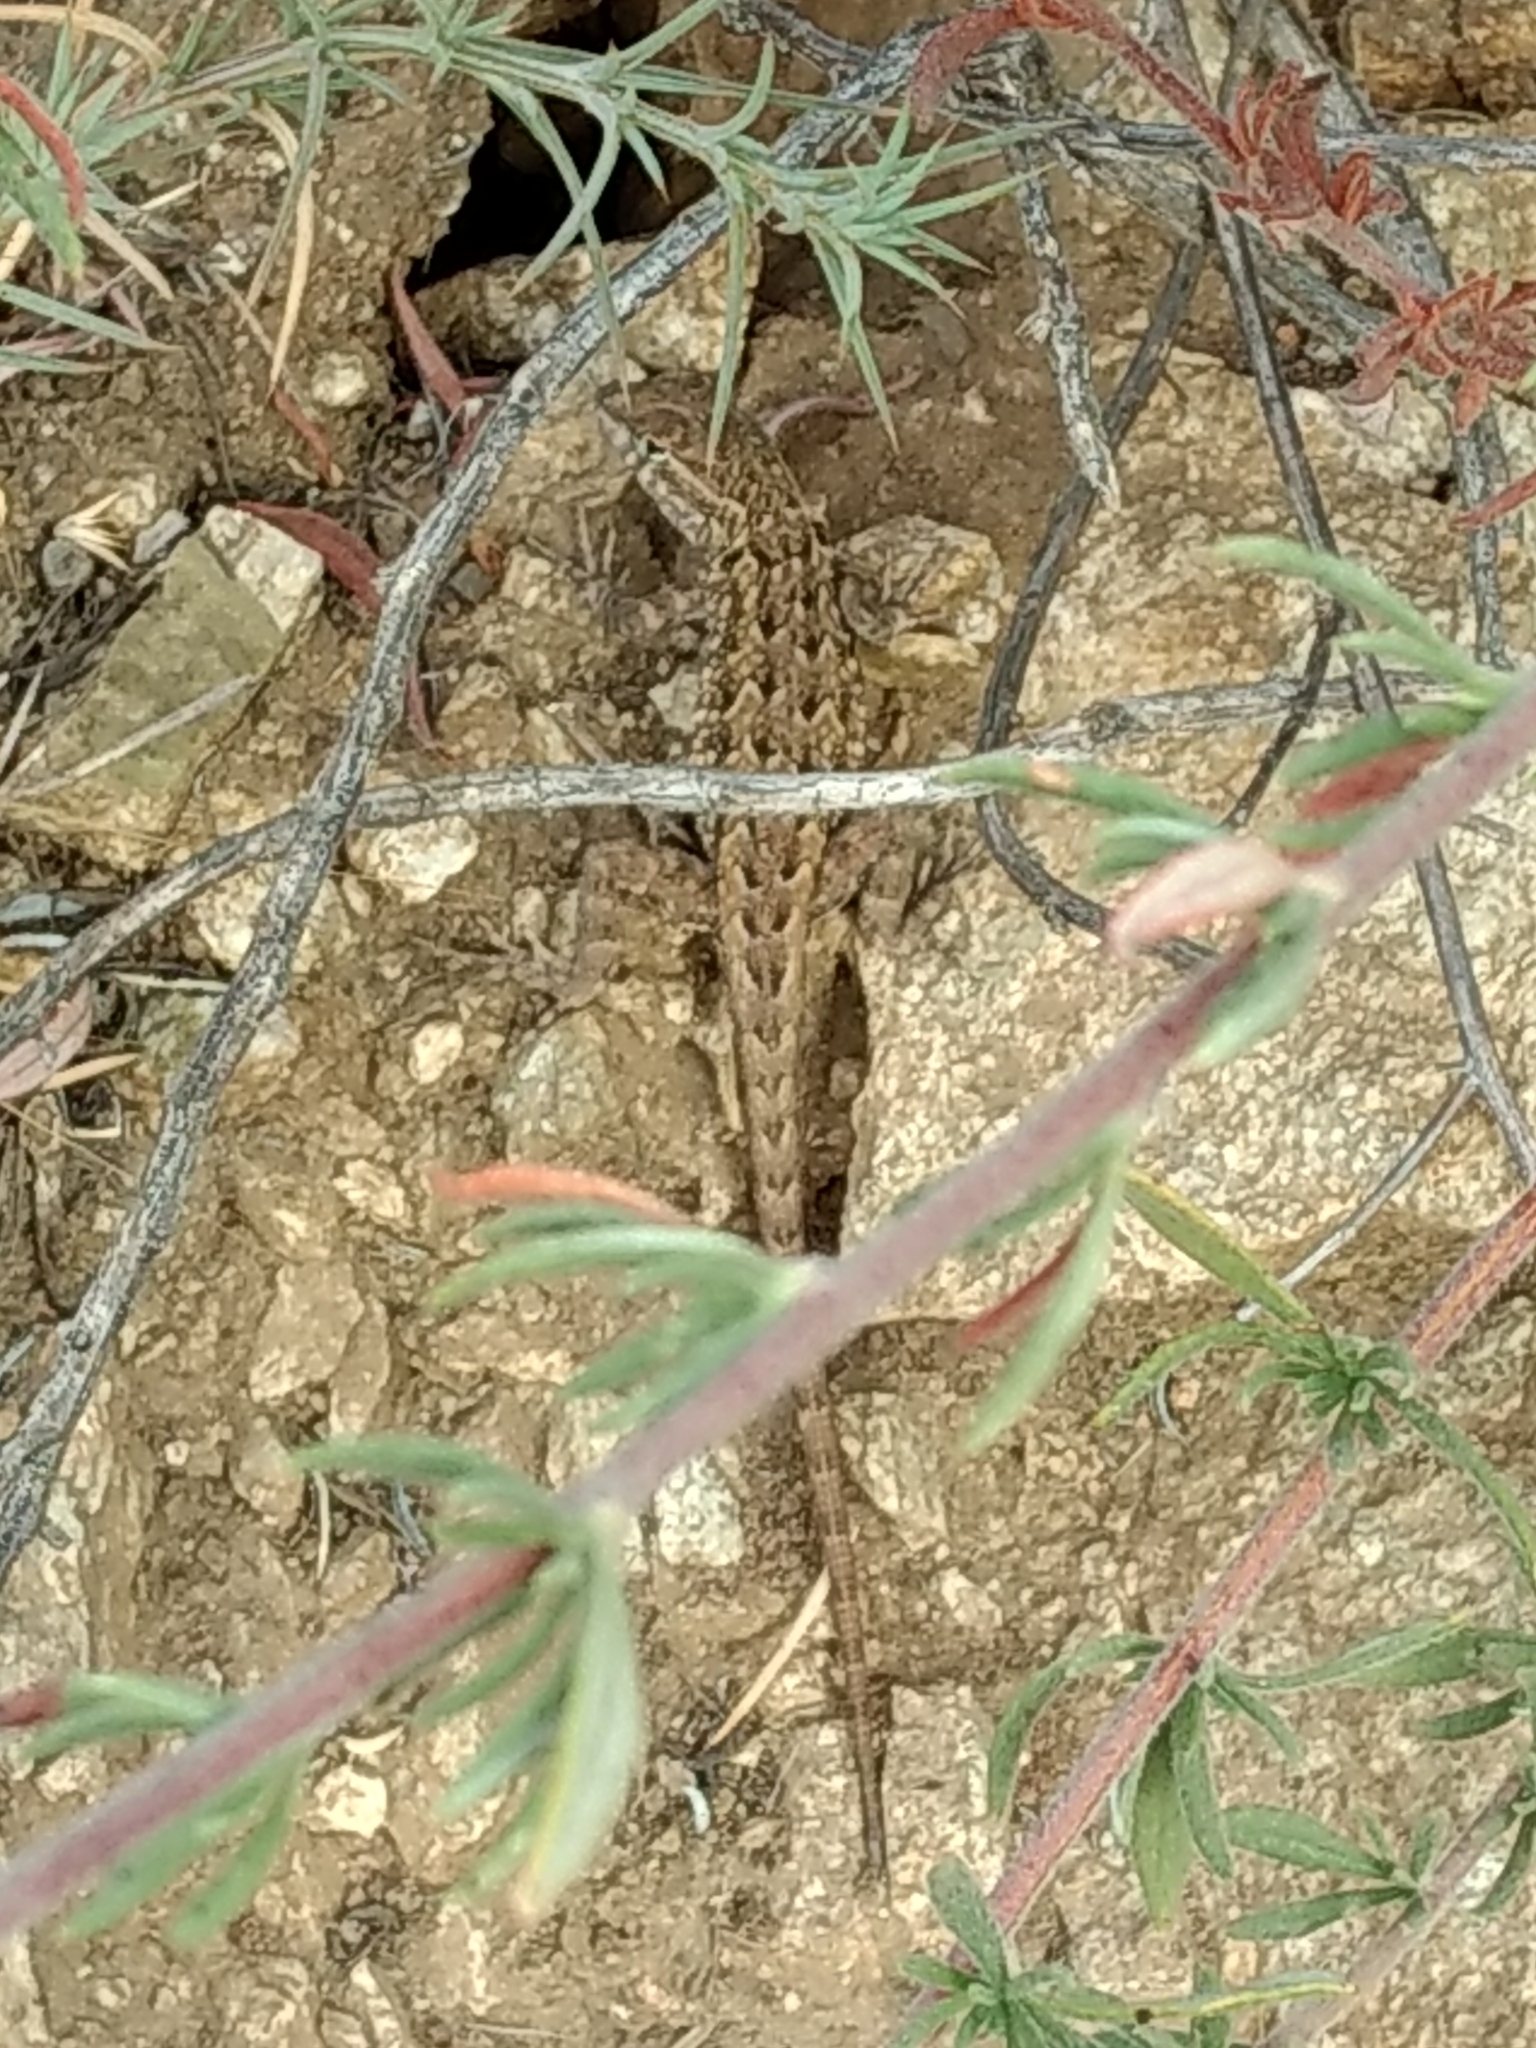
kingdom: Animalia
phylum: Chordata
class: Squamata
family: Phrynosomatidae
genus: Uta
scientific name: Uta stansburiana
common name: Side-blotched lizard
